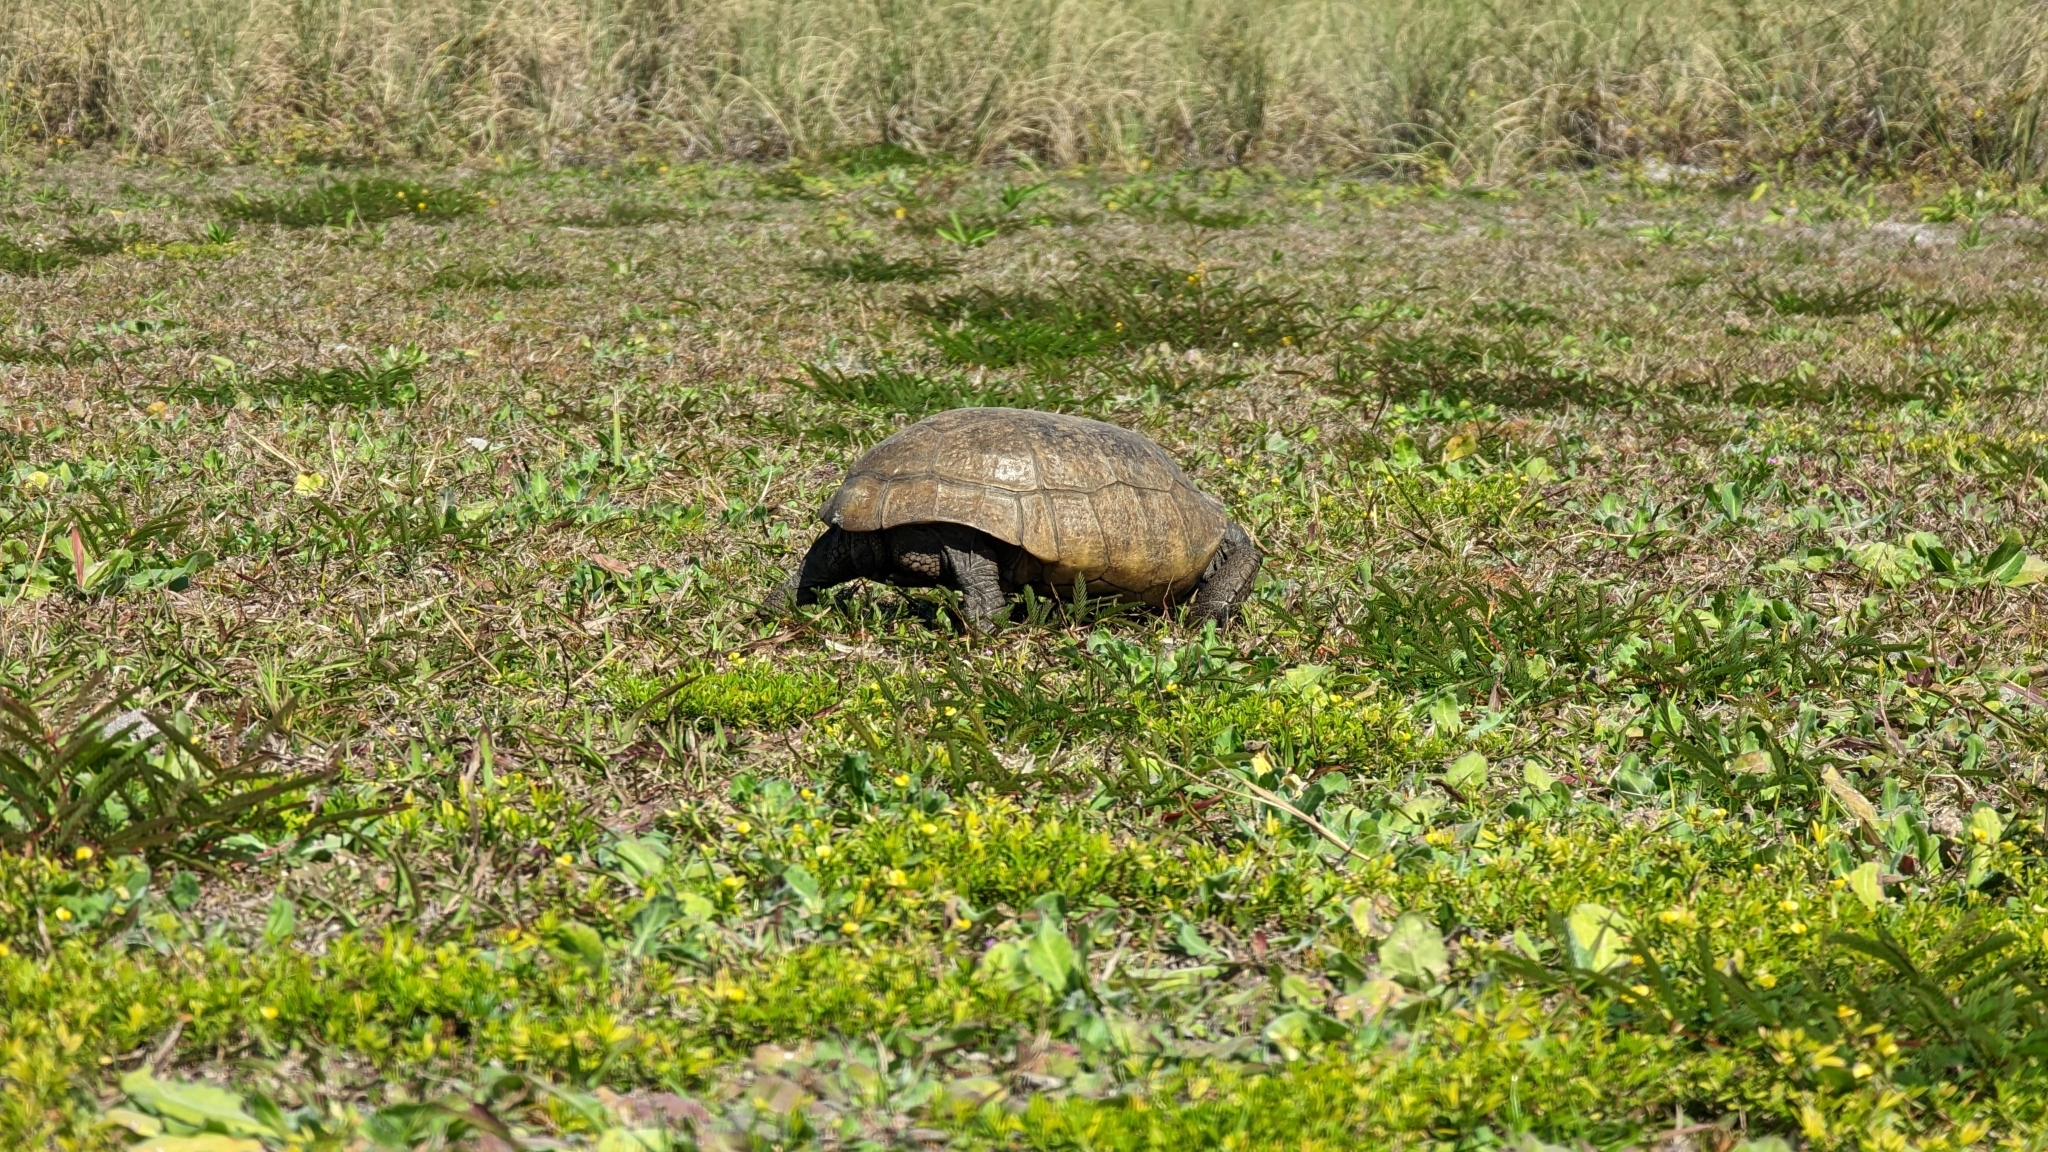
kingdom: Animalia
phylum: Chordata
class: Testudines
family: Testudinidae
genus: Gopherus
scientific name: Gopherus polyphemus
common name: Florida gopher tortoise
